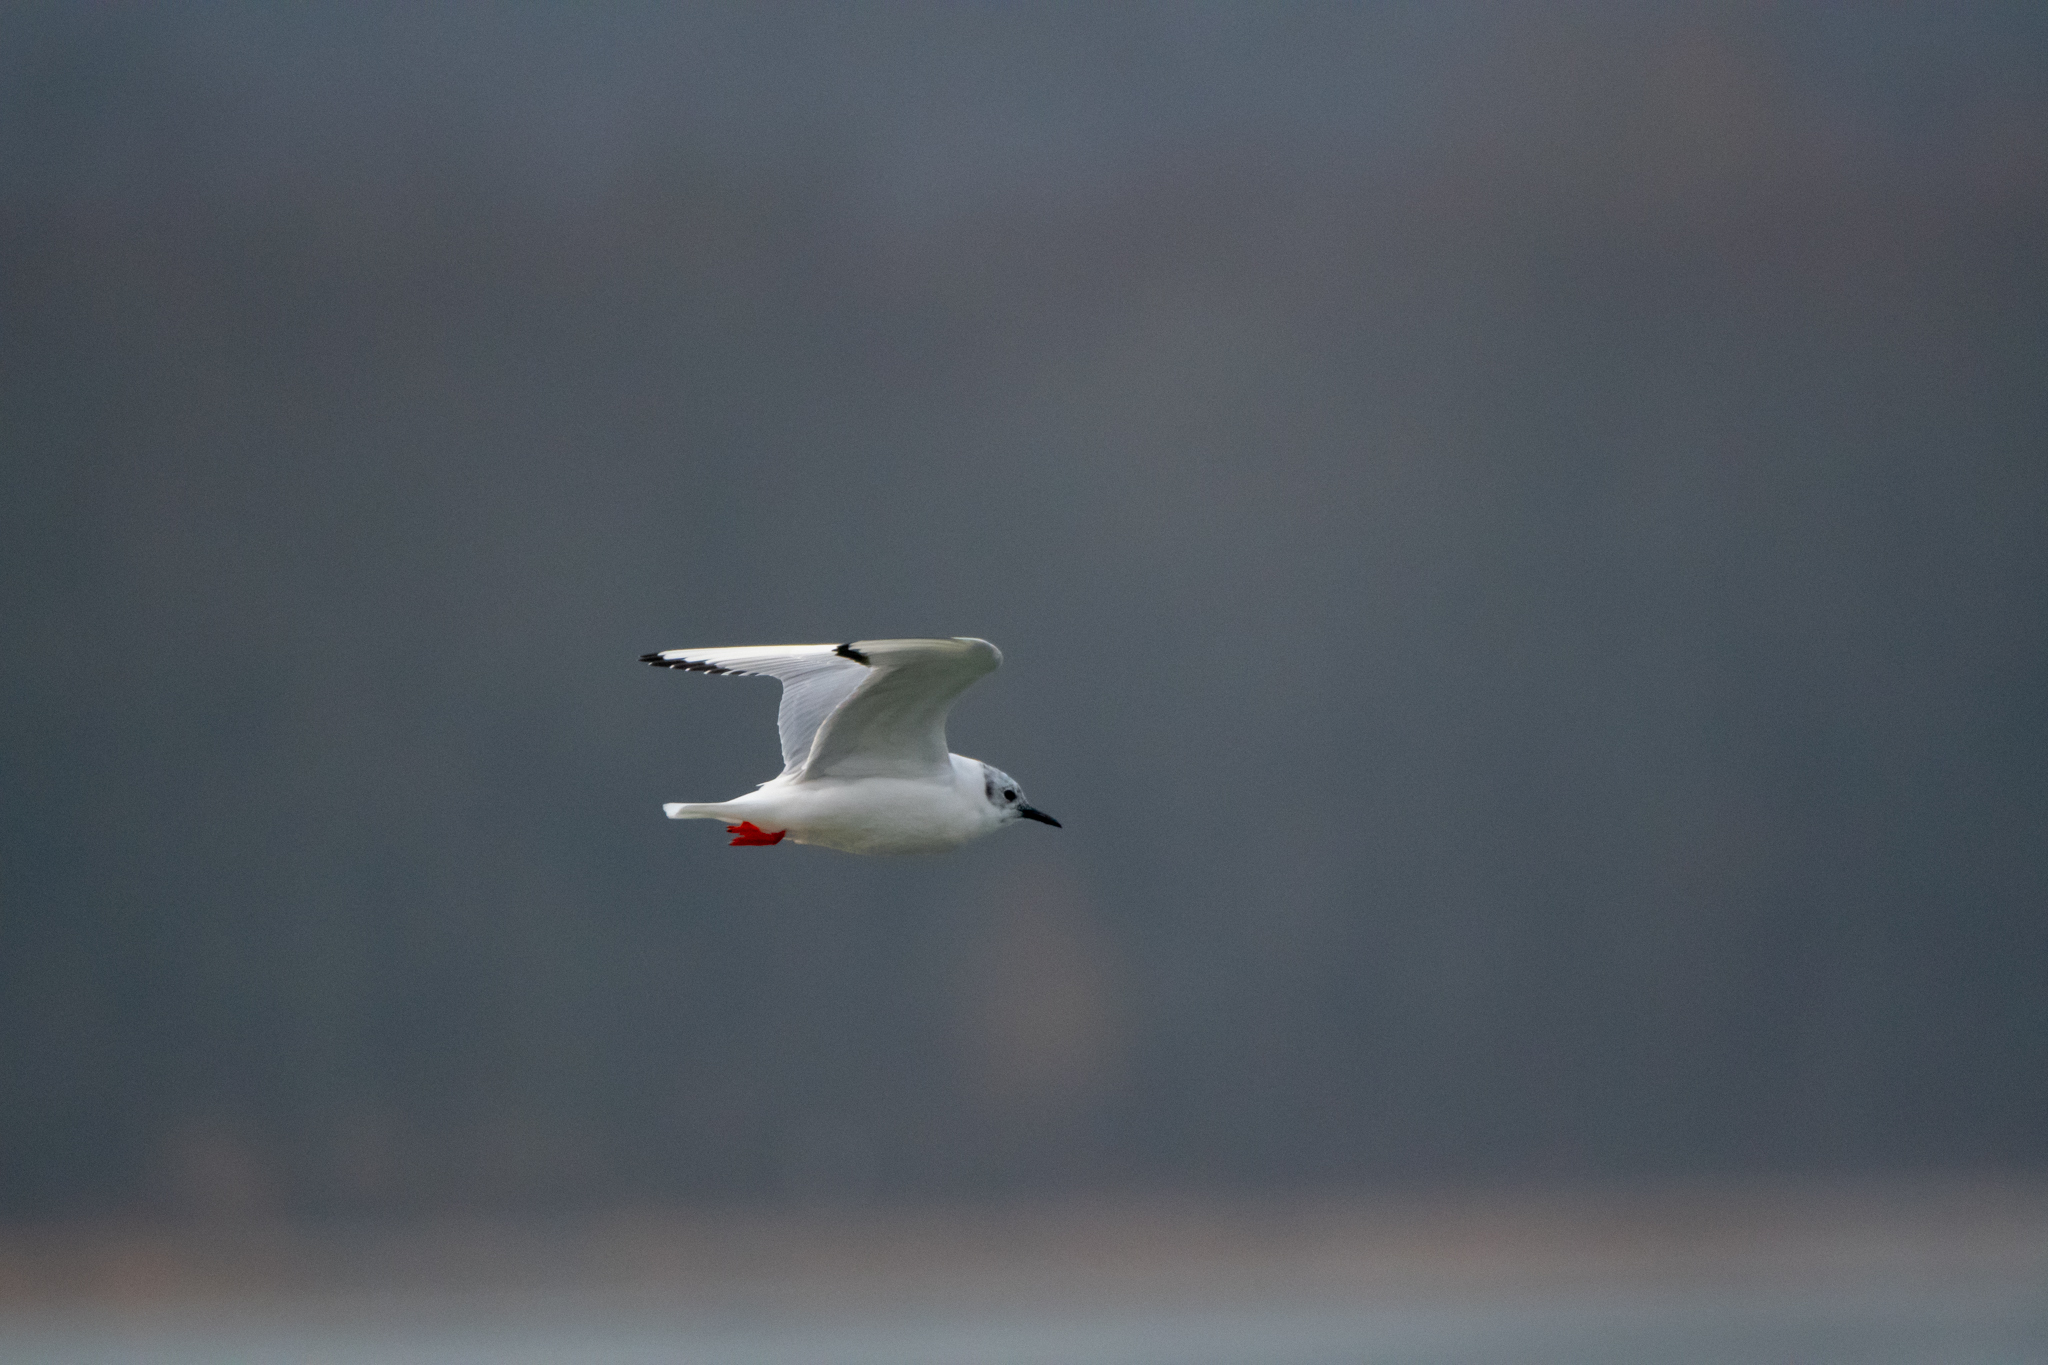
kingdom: Animalia
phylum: Chordata
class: Aves
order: Charadriiformes
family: Laridae
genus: Chroicocephalus
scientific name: Chroicocephalus philadelphia
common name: Bonaparte's gull
